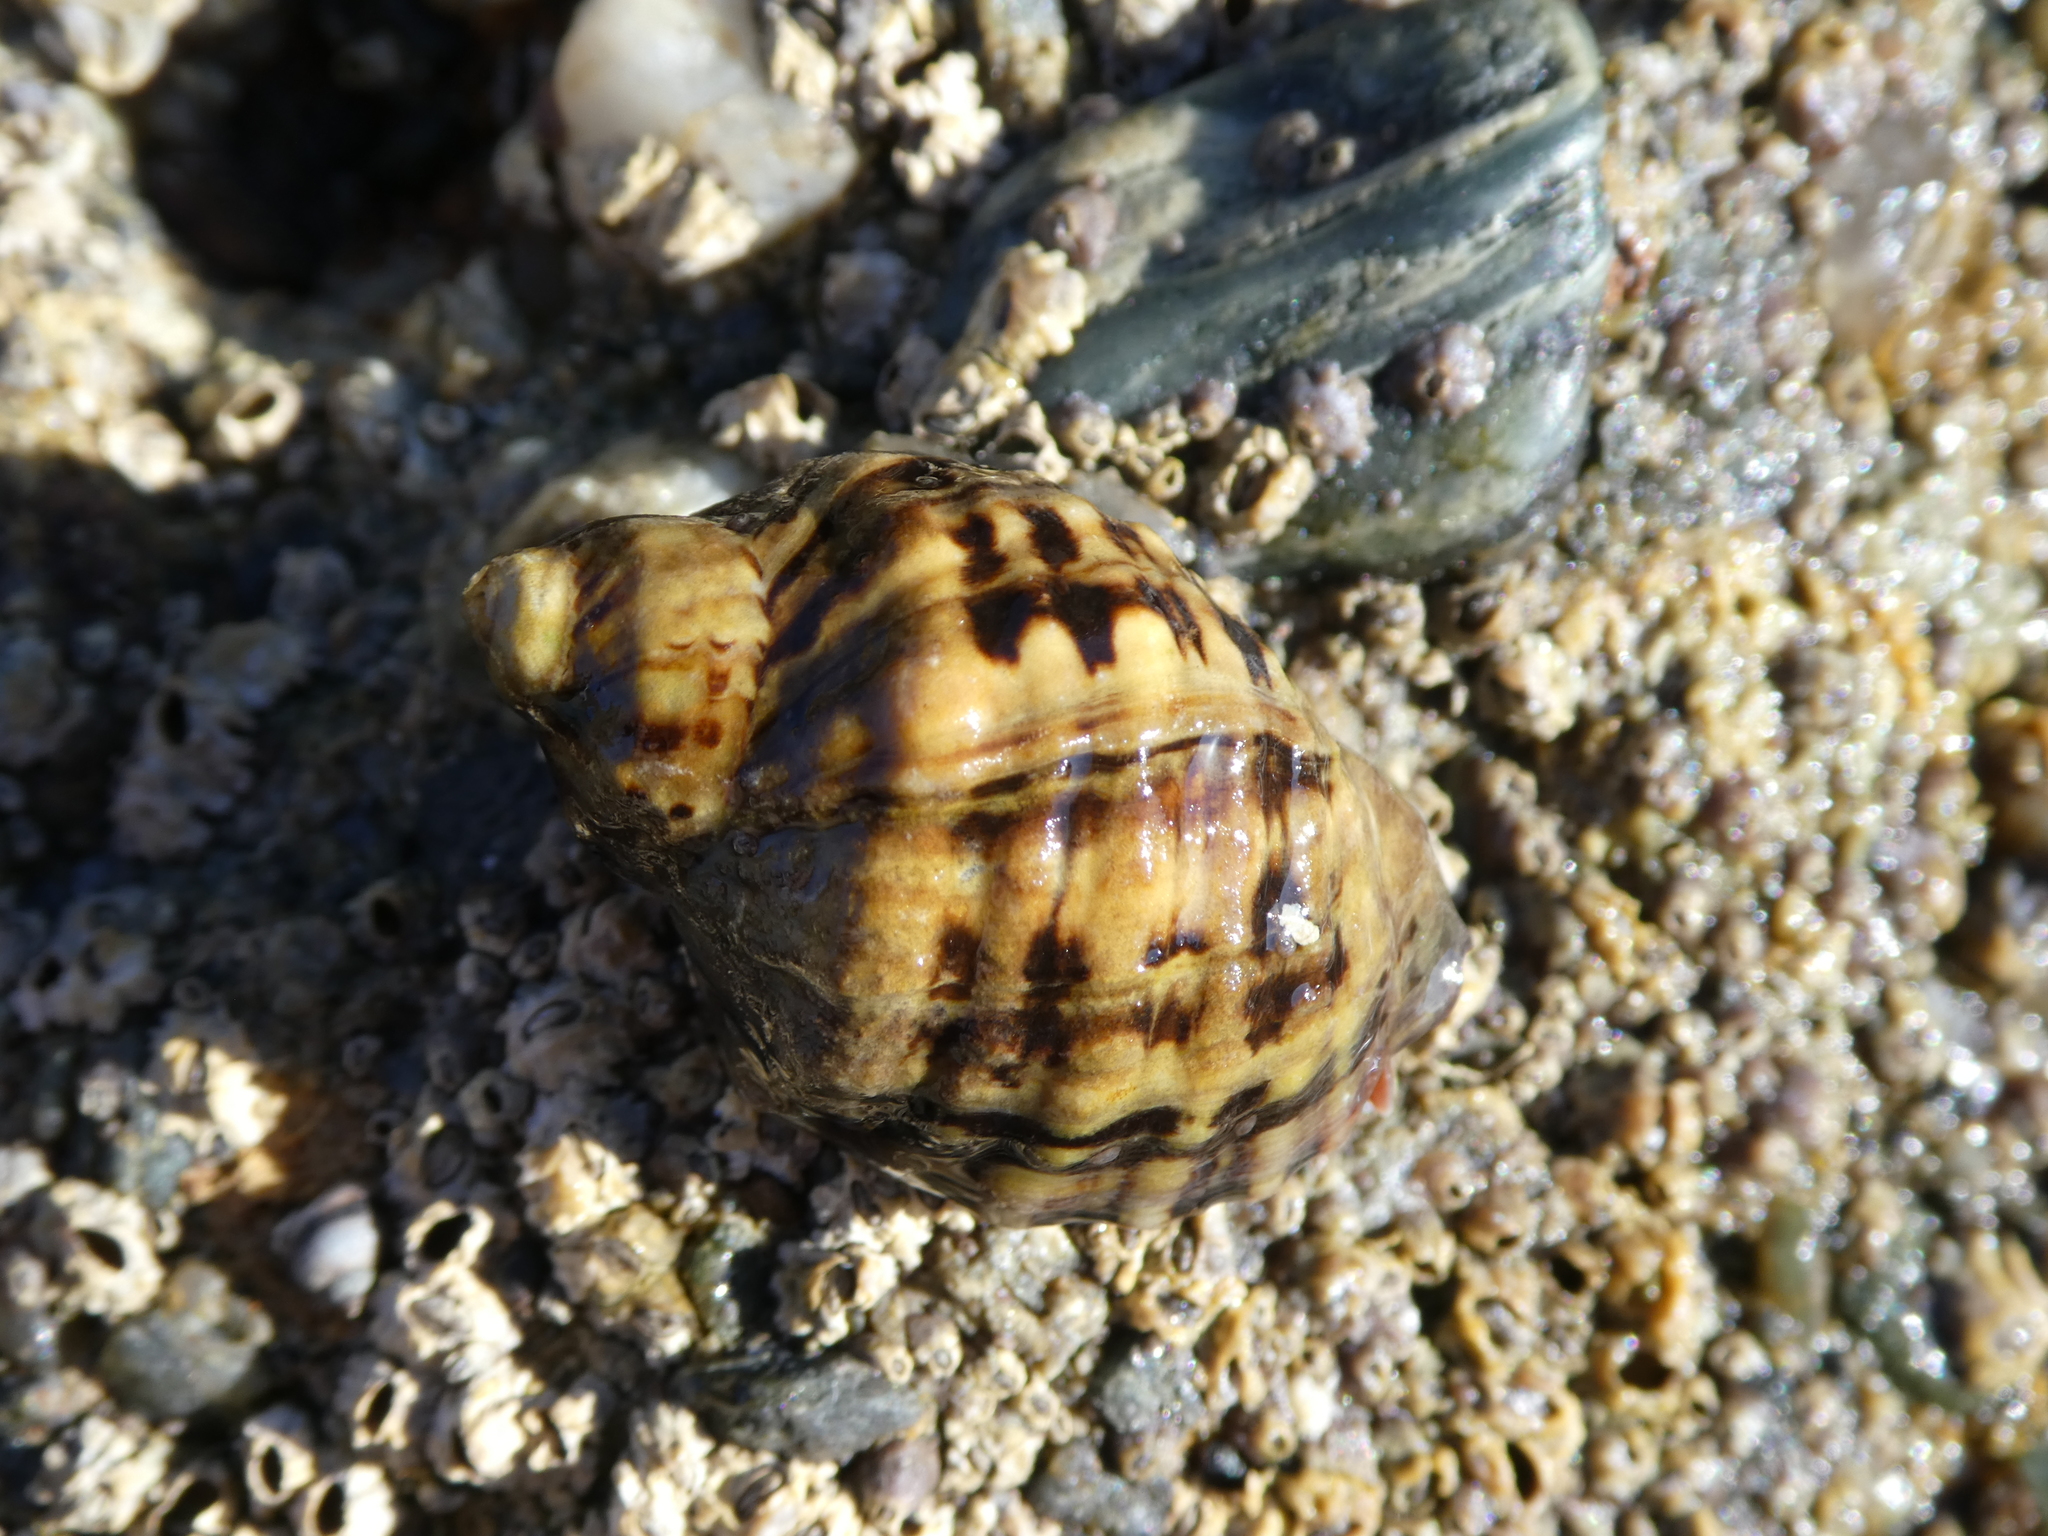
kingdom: Animalia
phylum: Mollusca
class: Gastropoda
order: Neogastropoda
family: Muricidae
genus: Mexacanthina
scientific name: Mexacanthina lugubris
